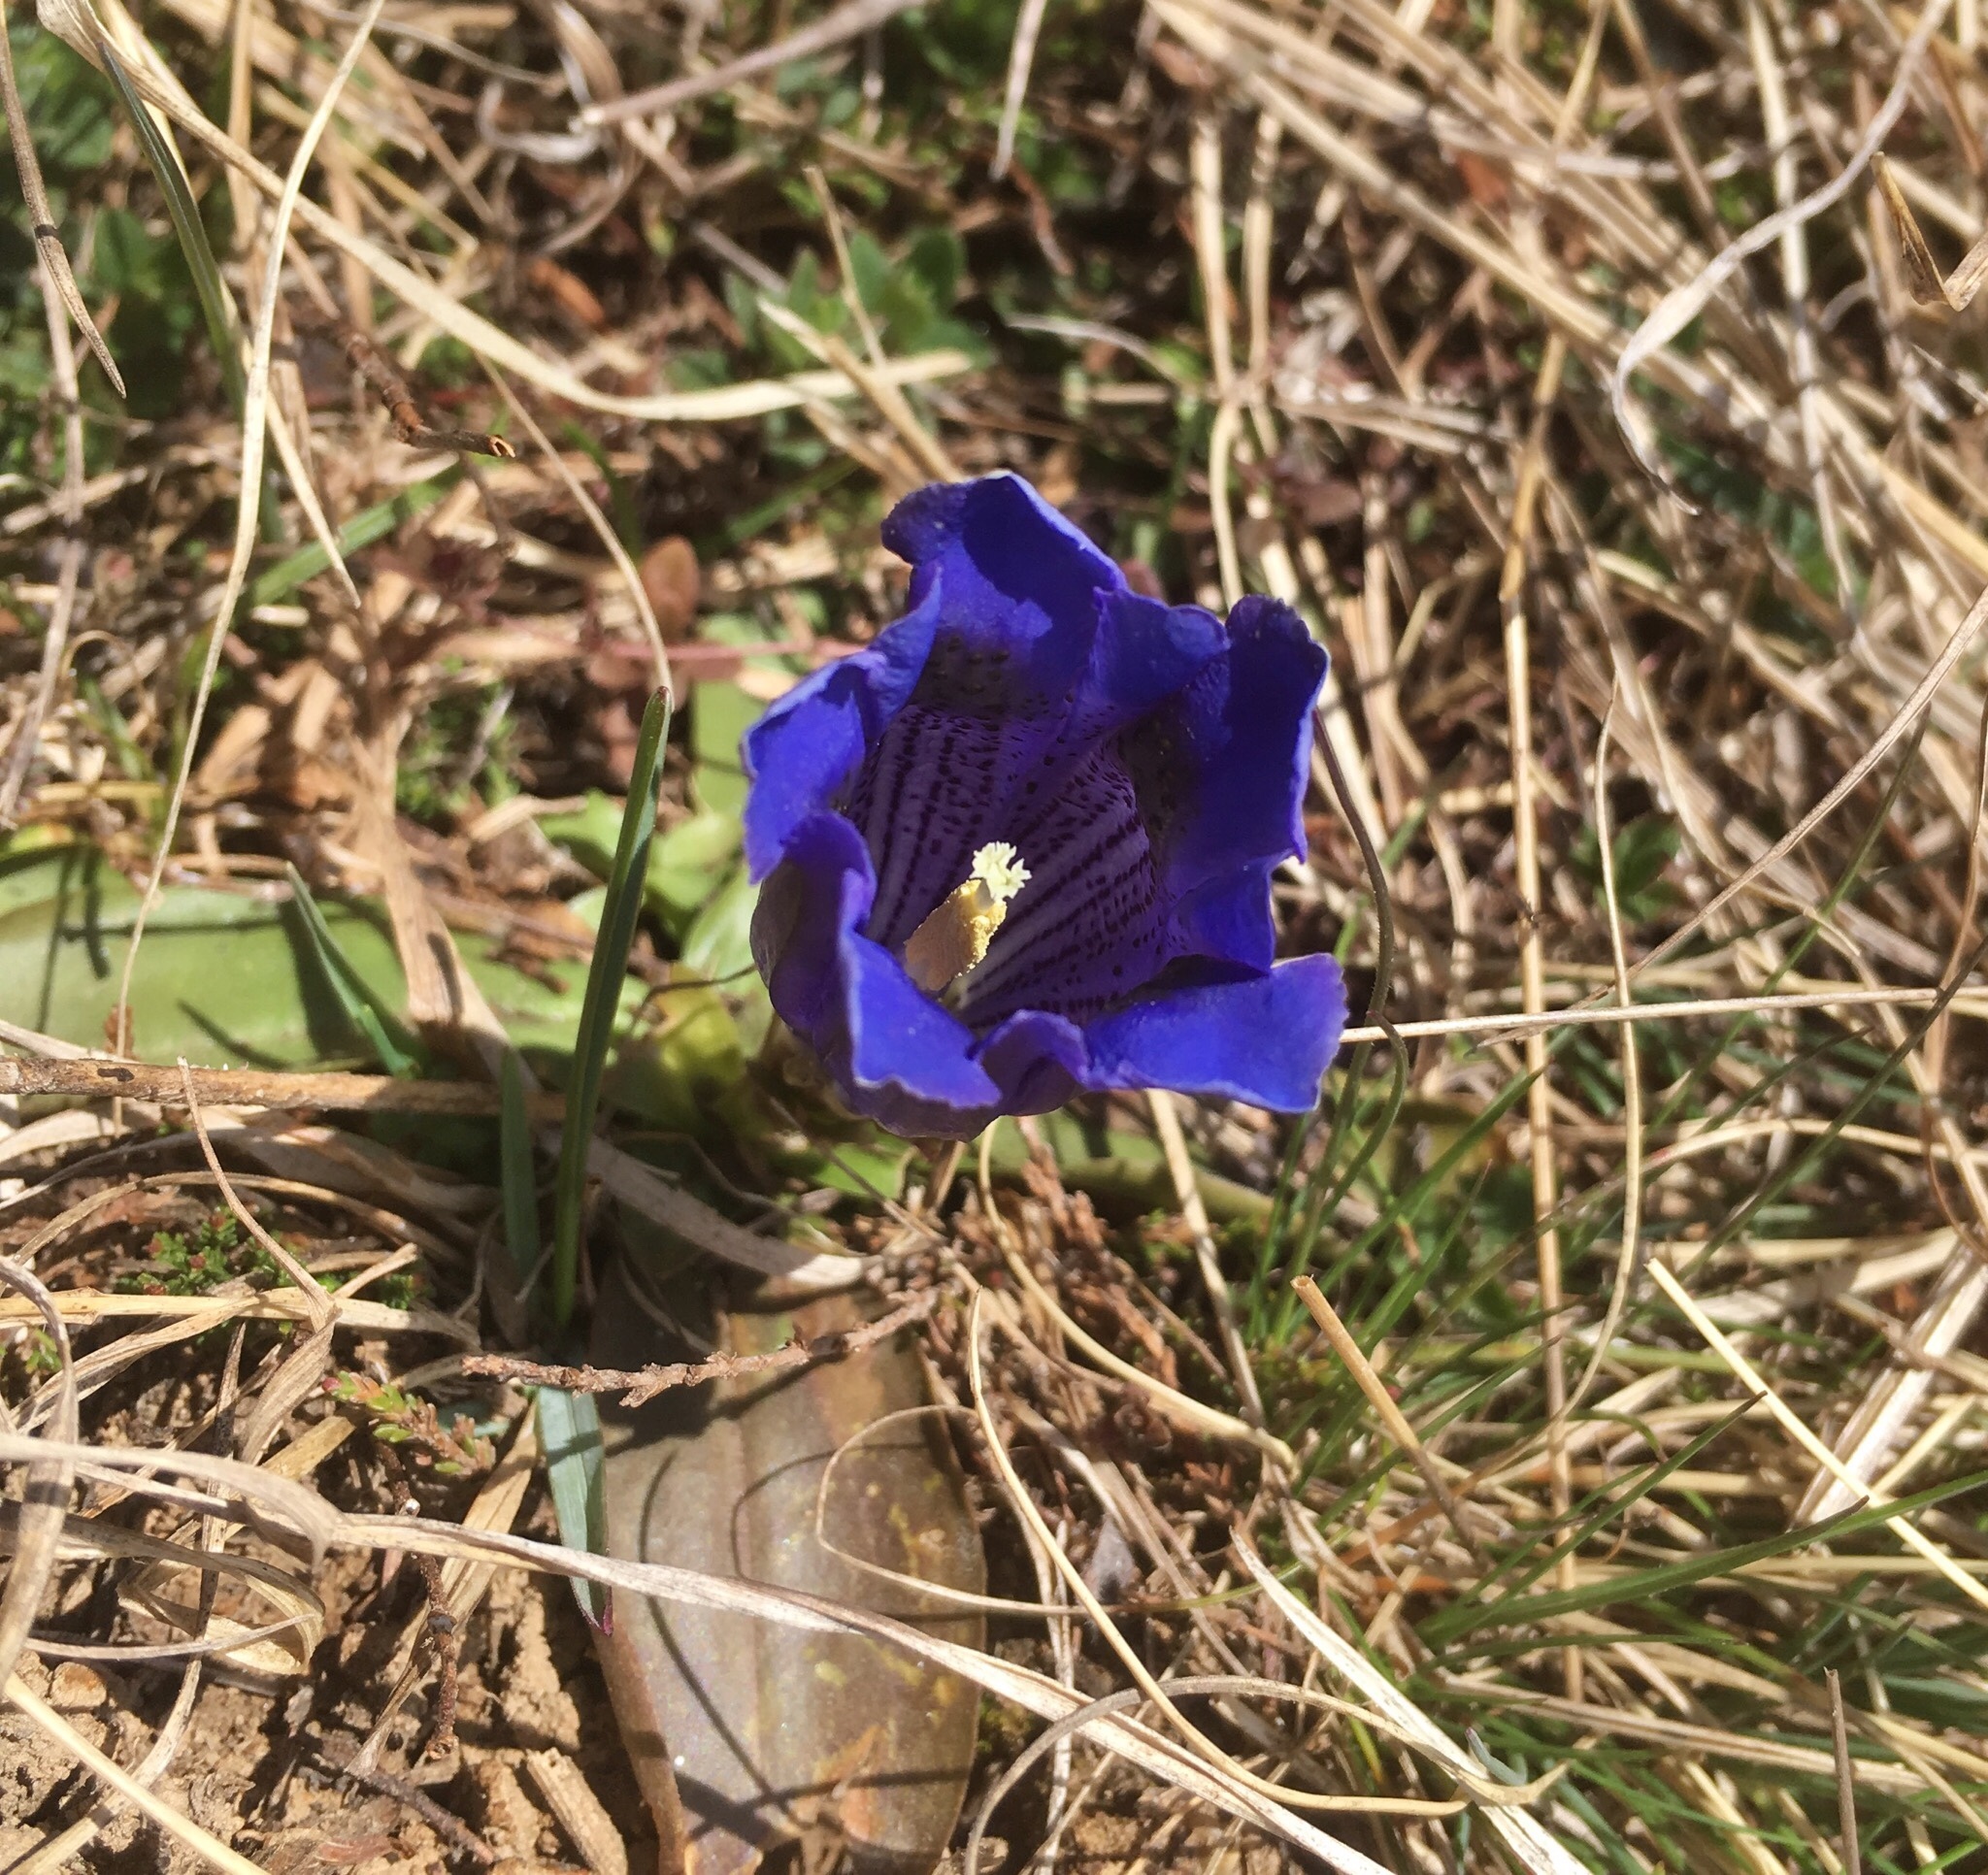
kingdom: Plantae
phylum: Tracheophyta
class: Magnoliopsida
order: Gentianales
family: Gentianaceae
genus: Gentiana
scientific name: Gentiana acaulis
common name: Trumpet gentian
